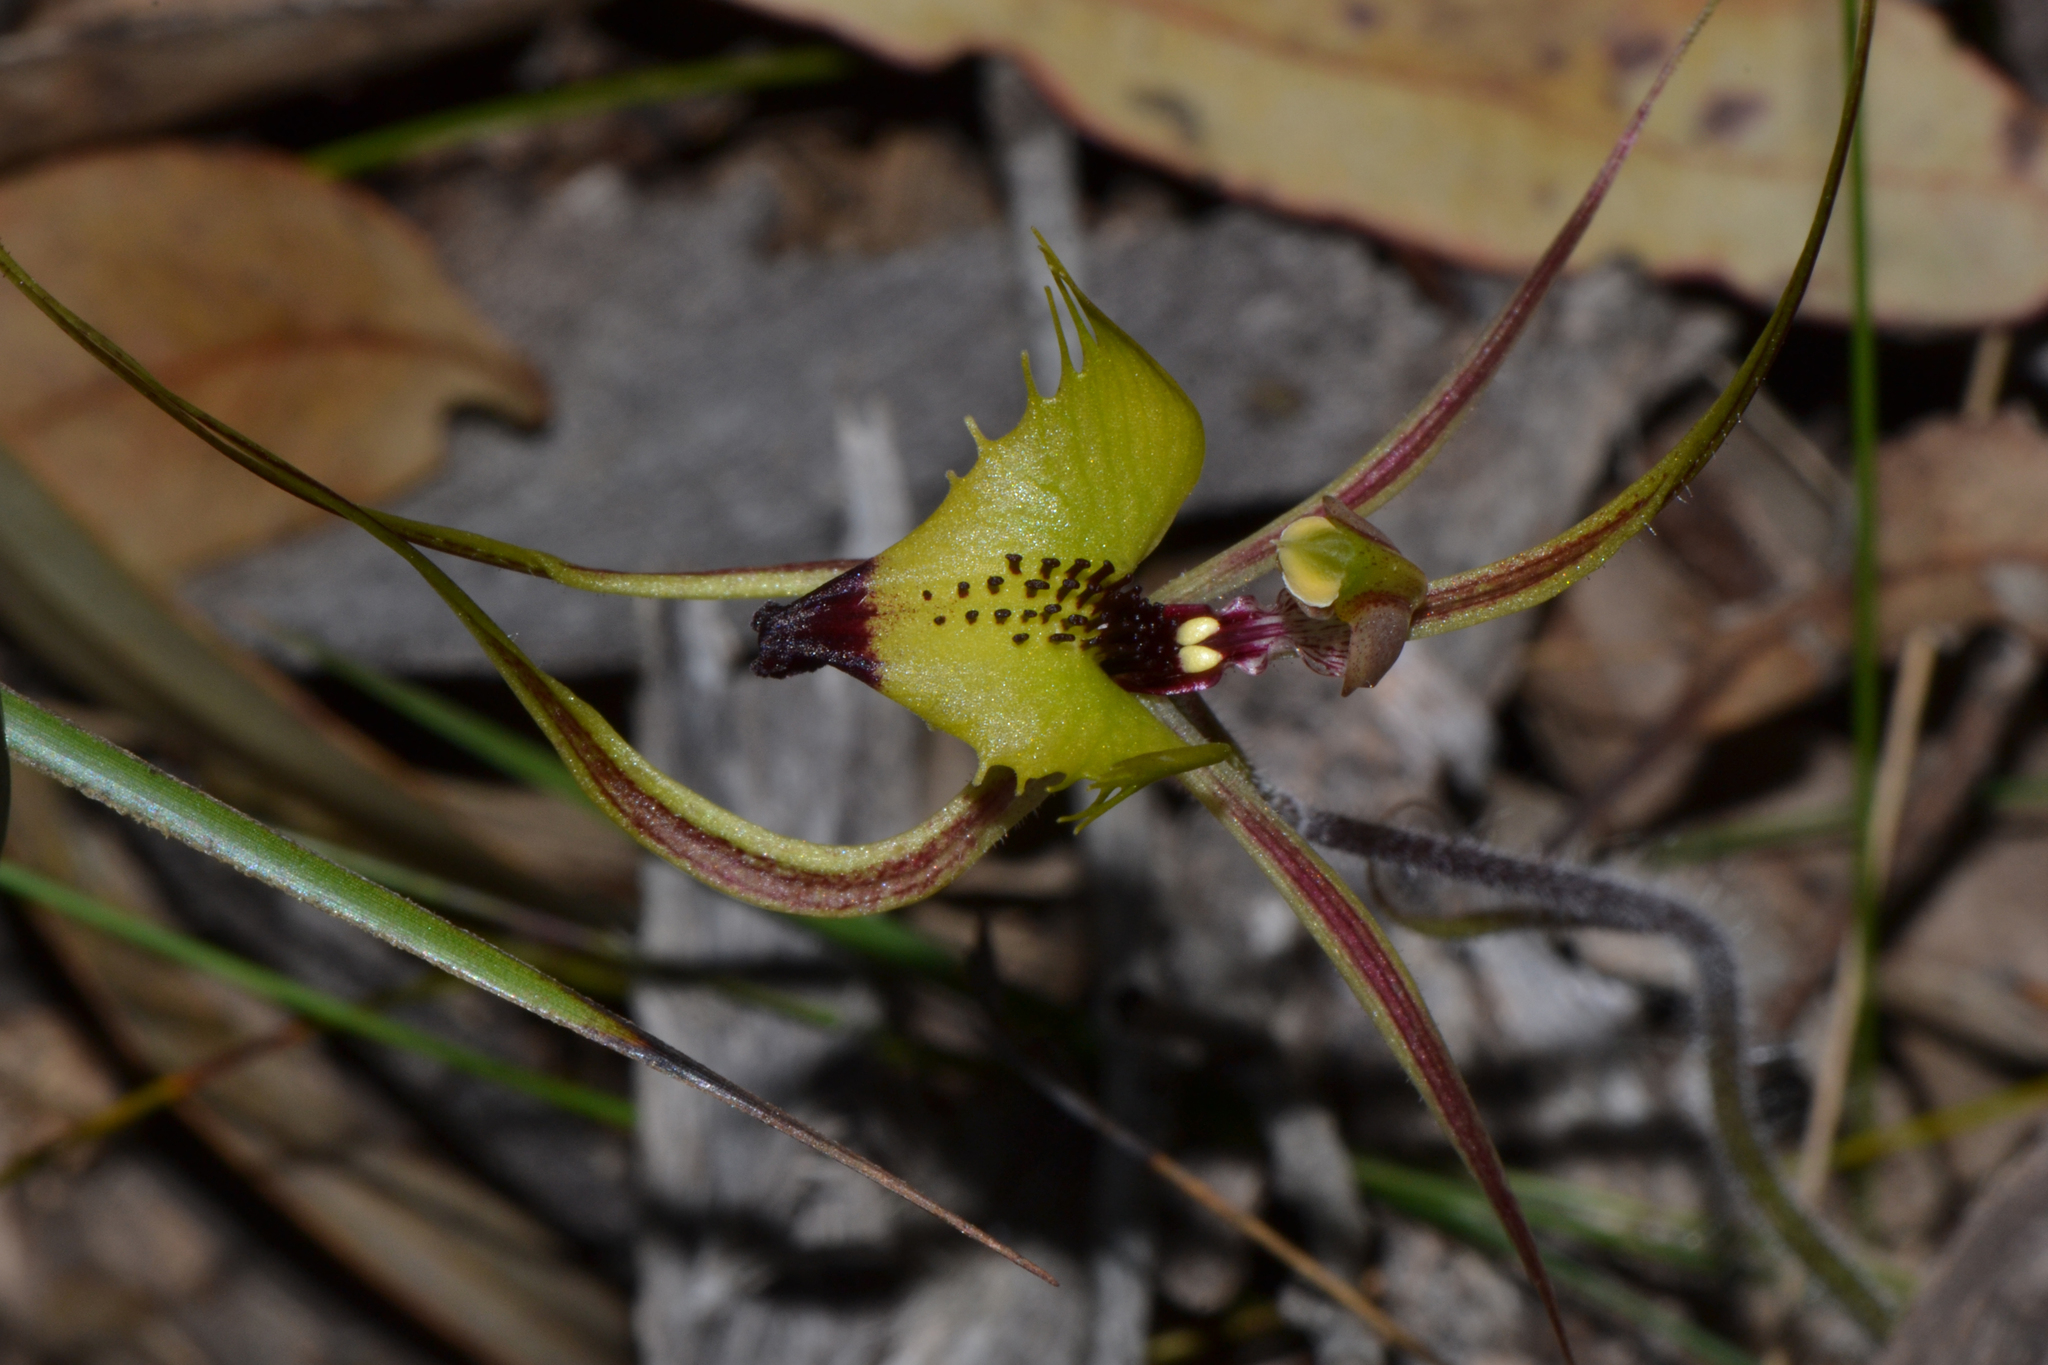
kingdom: Plantae
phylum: Tracheophyta
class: Liliopsida
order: Asparagales
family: Orchidaceae
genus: Caladenia
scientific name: Caladenia falcata
